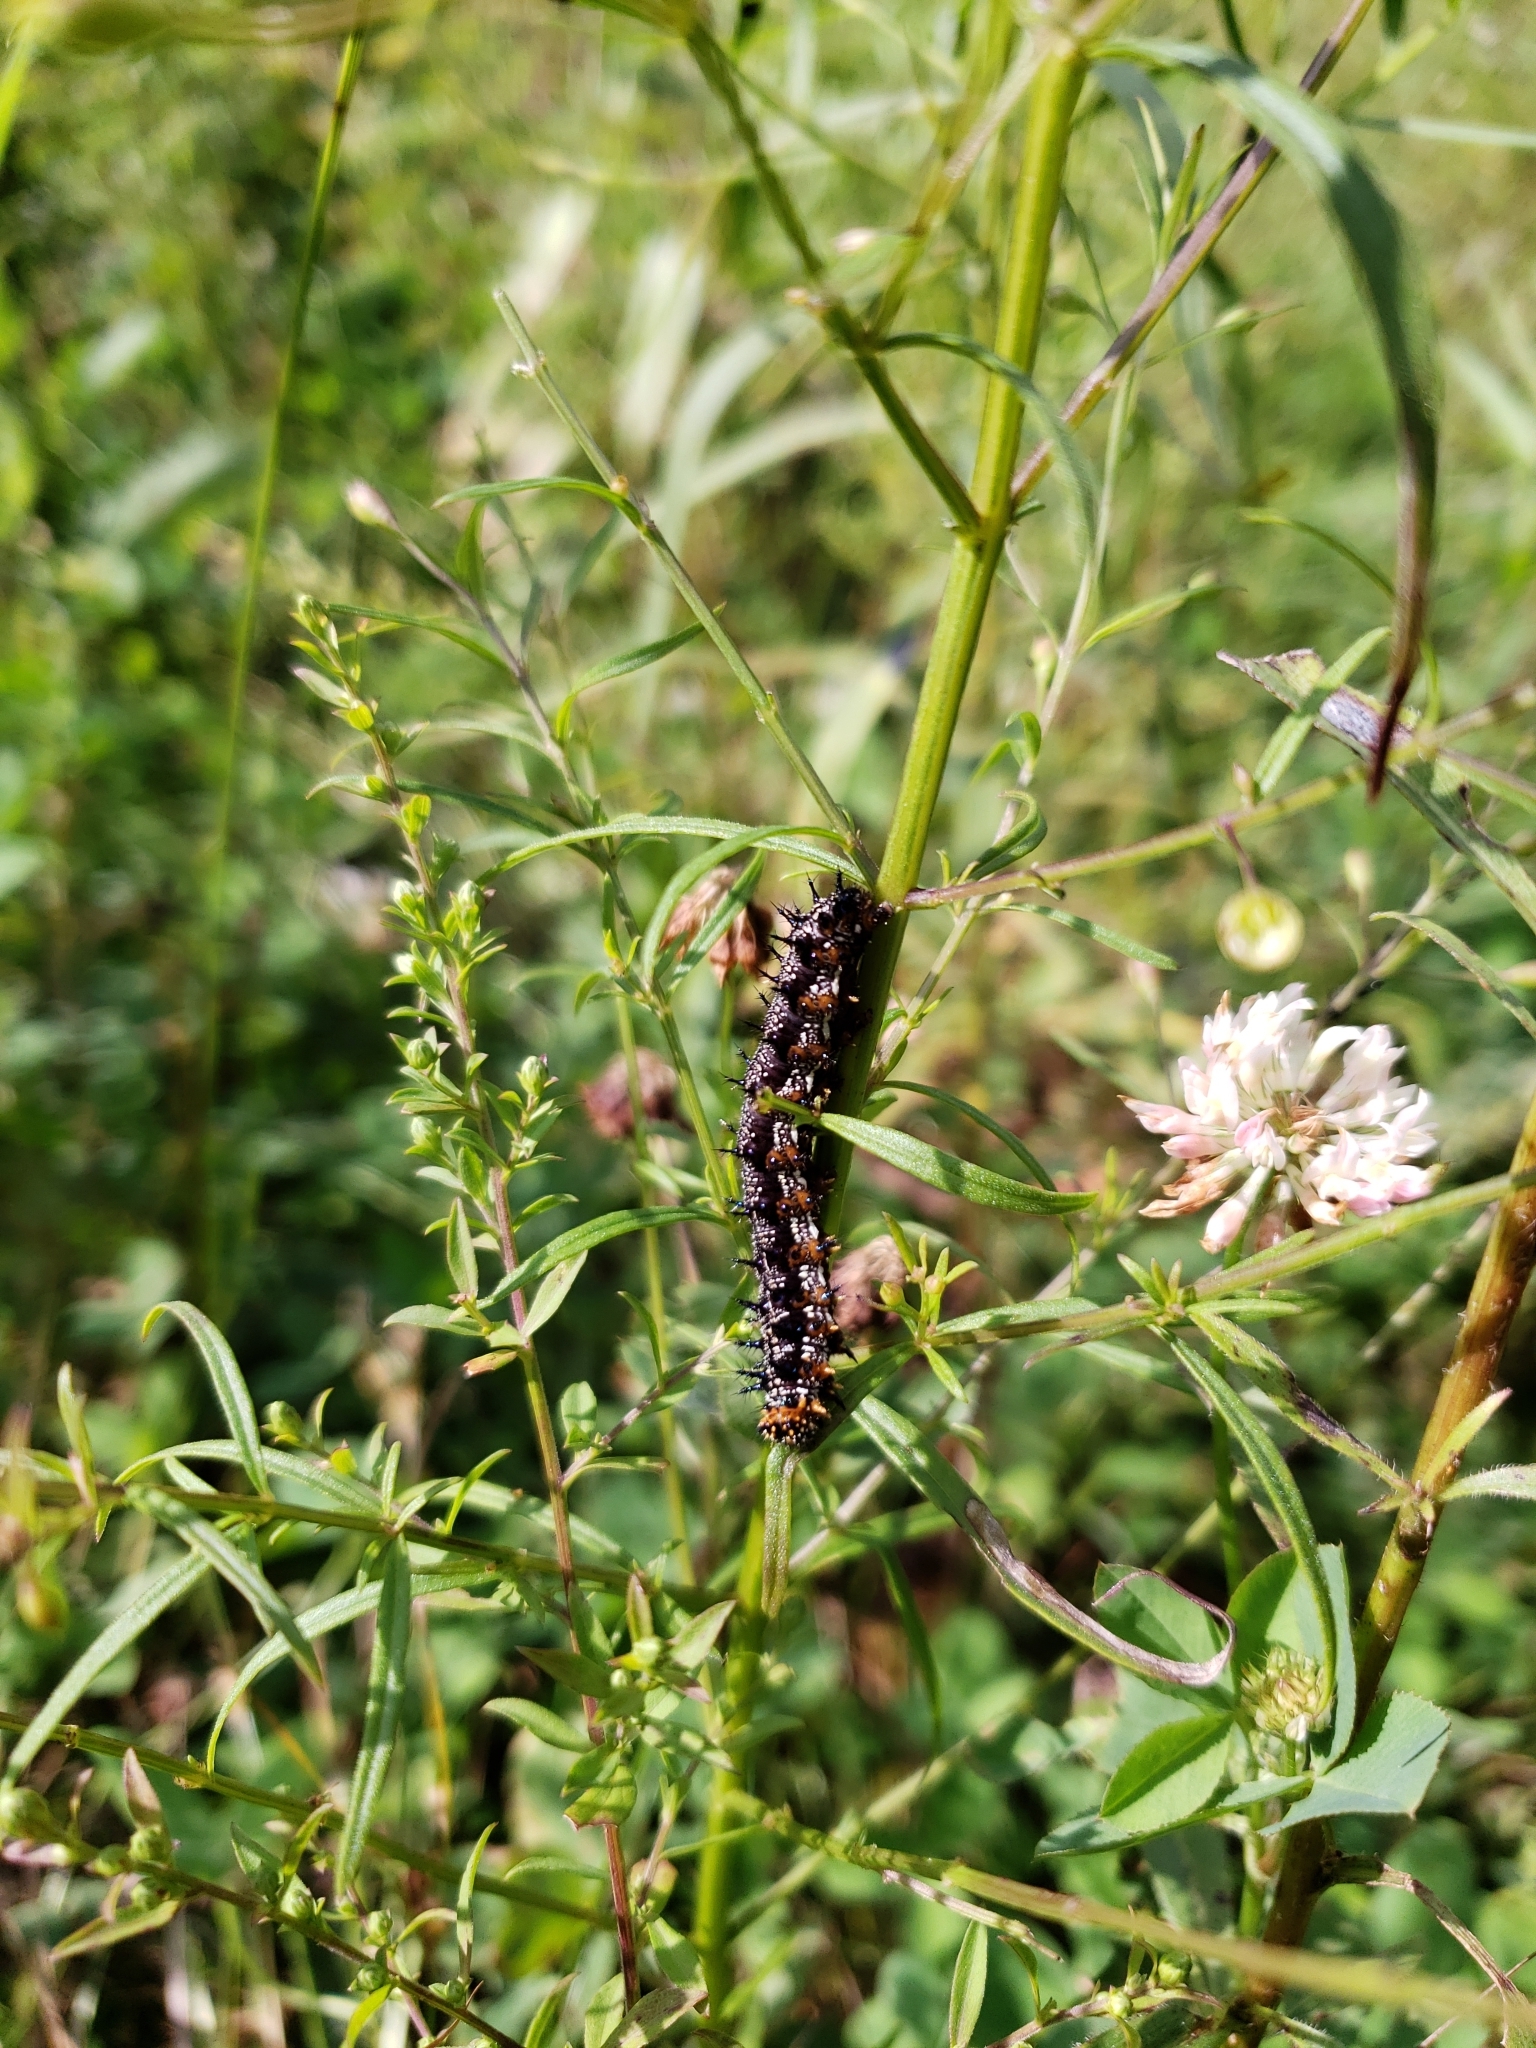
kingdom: Animalia
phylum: Arthropoda
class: Insecta
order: Lepidoptera
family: Nymphalidae
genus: Junonia
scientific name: Junonia coenia
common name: Common buckeye
